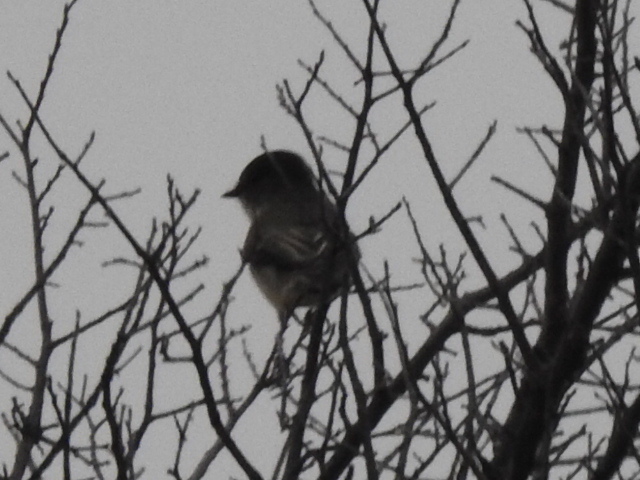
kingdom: Animalia
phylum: Chordata
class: Aves
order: Passeriformes
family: Tyrannidae
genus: Sayornis
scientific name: Sayornis phoebe
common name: Eastern phoebe
